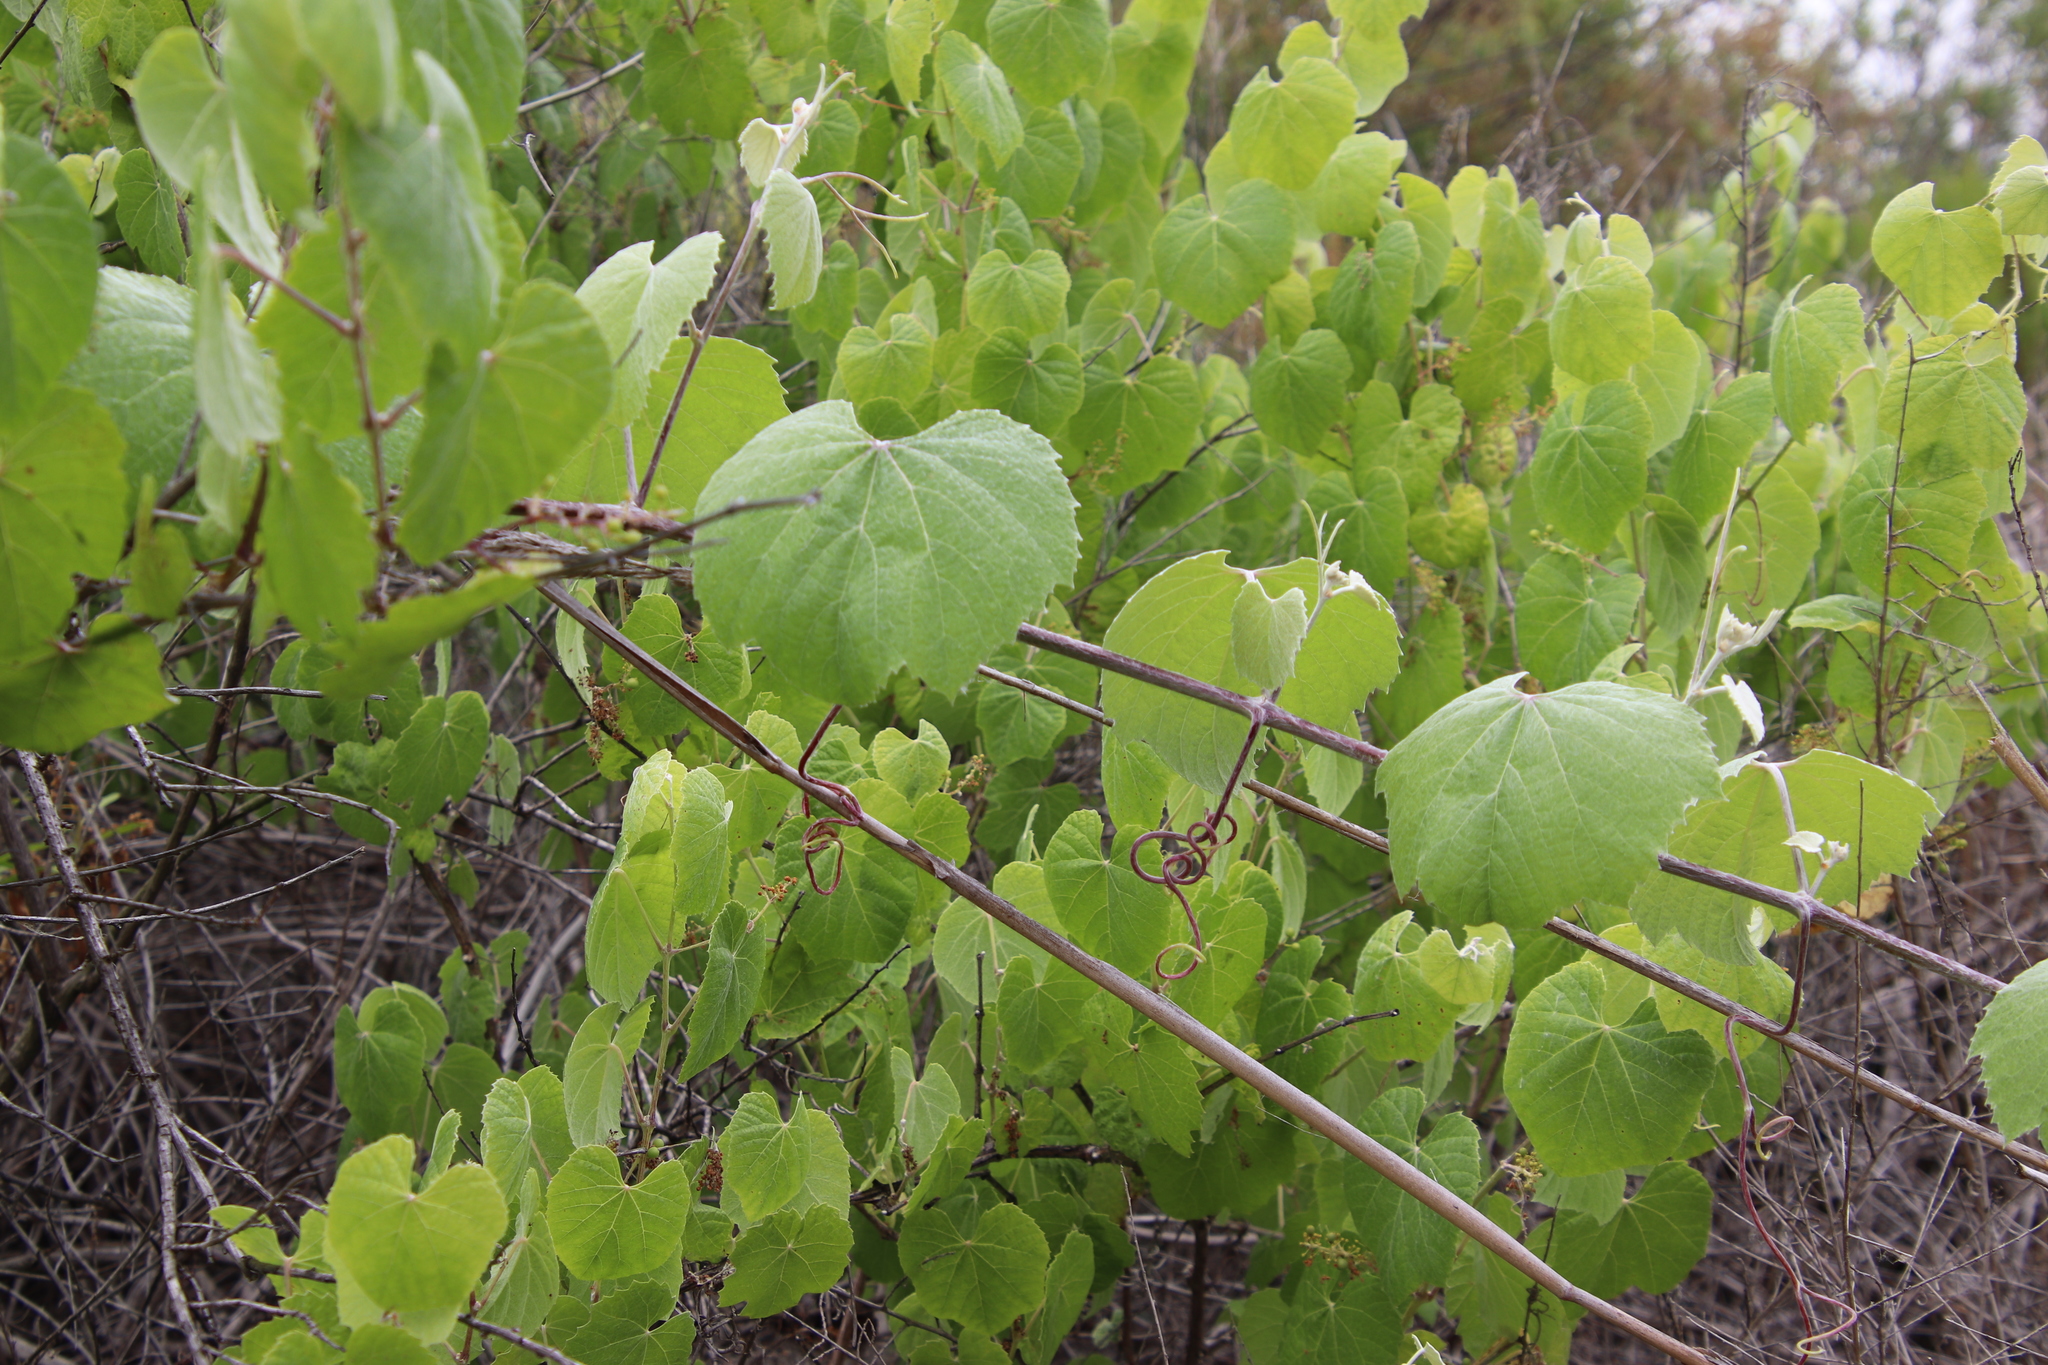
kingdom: Plantae
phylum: Tracheophyta
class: Magnoliopsida
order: Vitales
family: Vitaceae
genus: Vitis
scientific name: Vitis girdiana
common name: Desert wild grape
